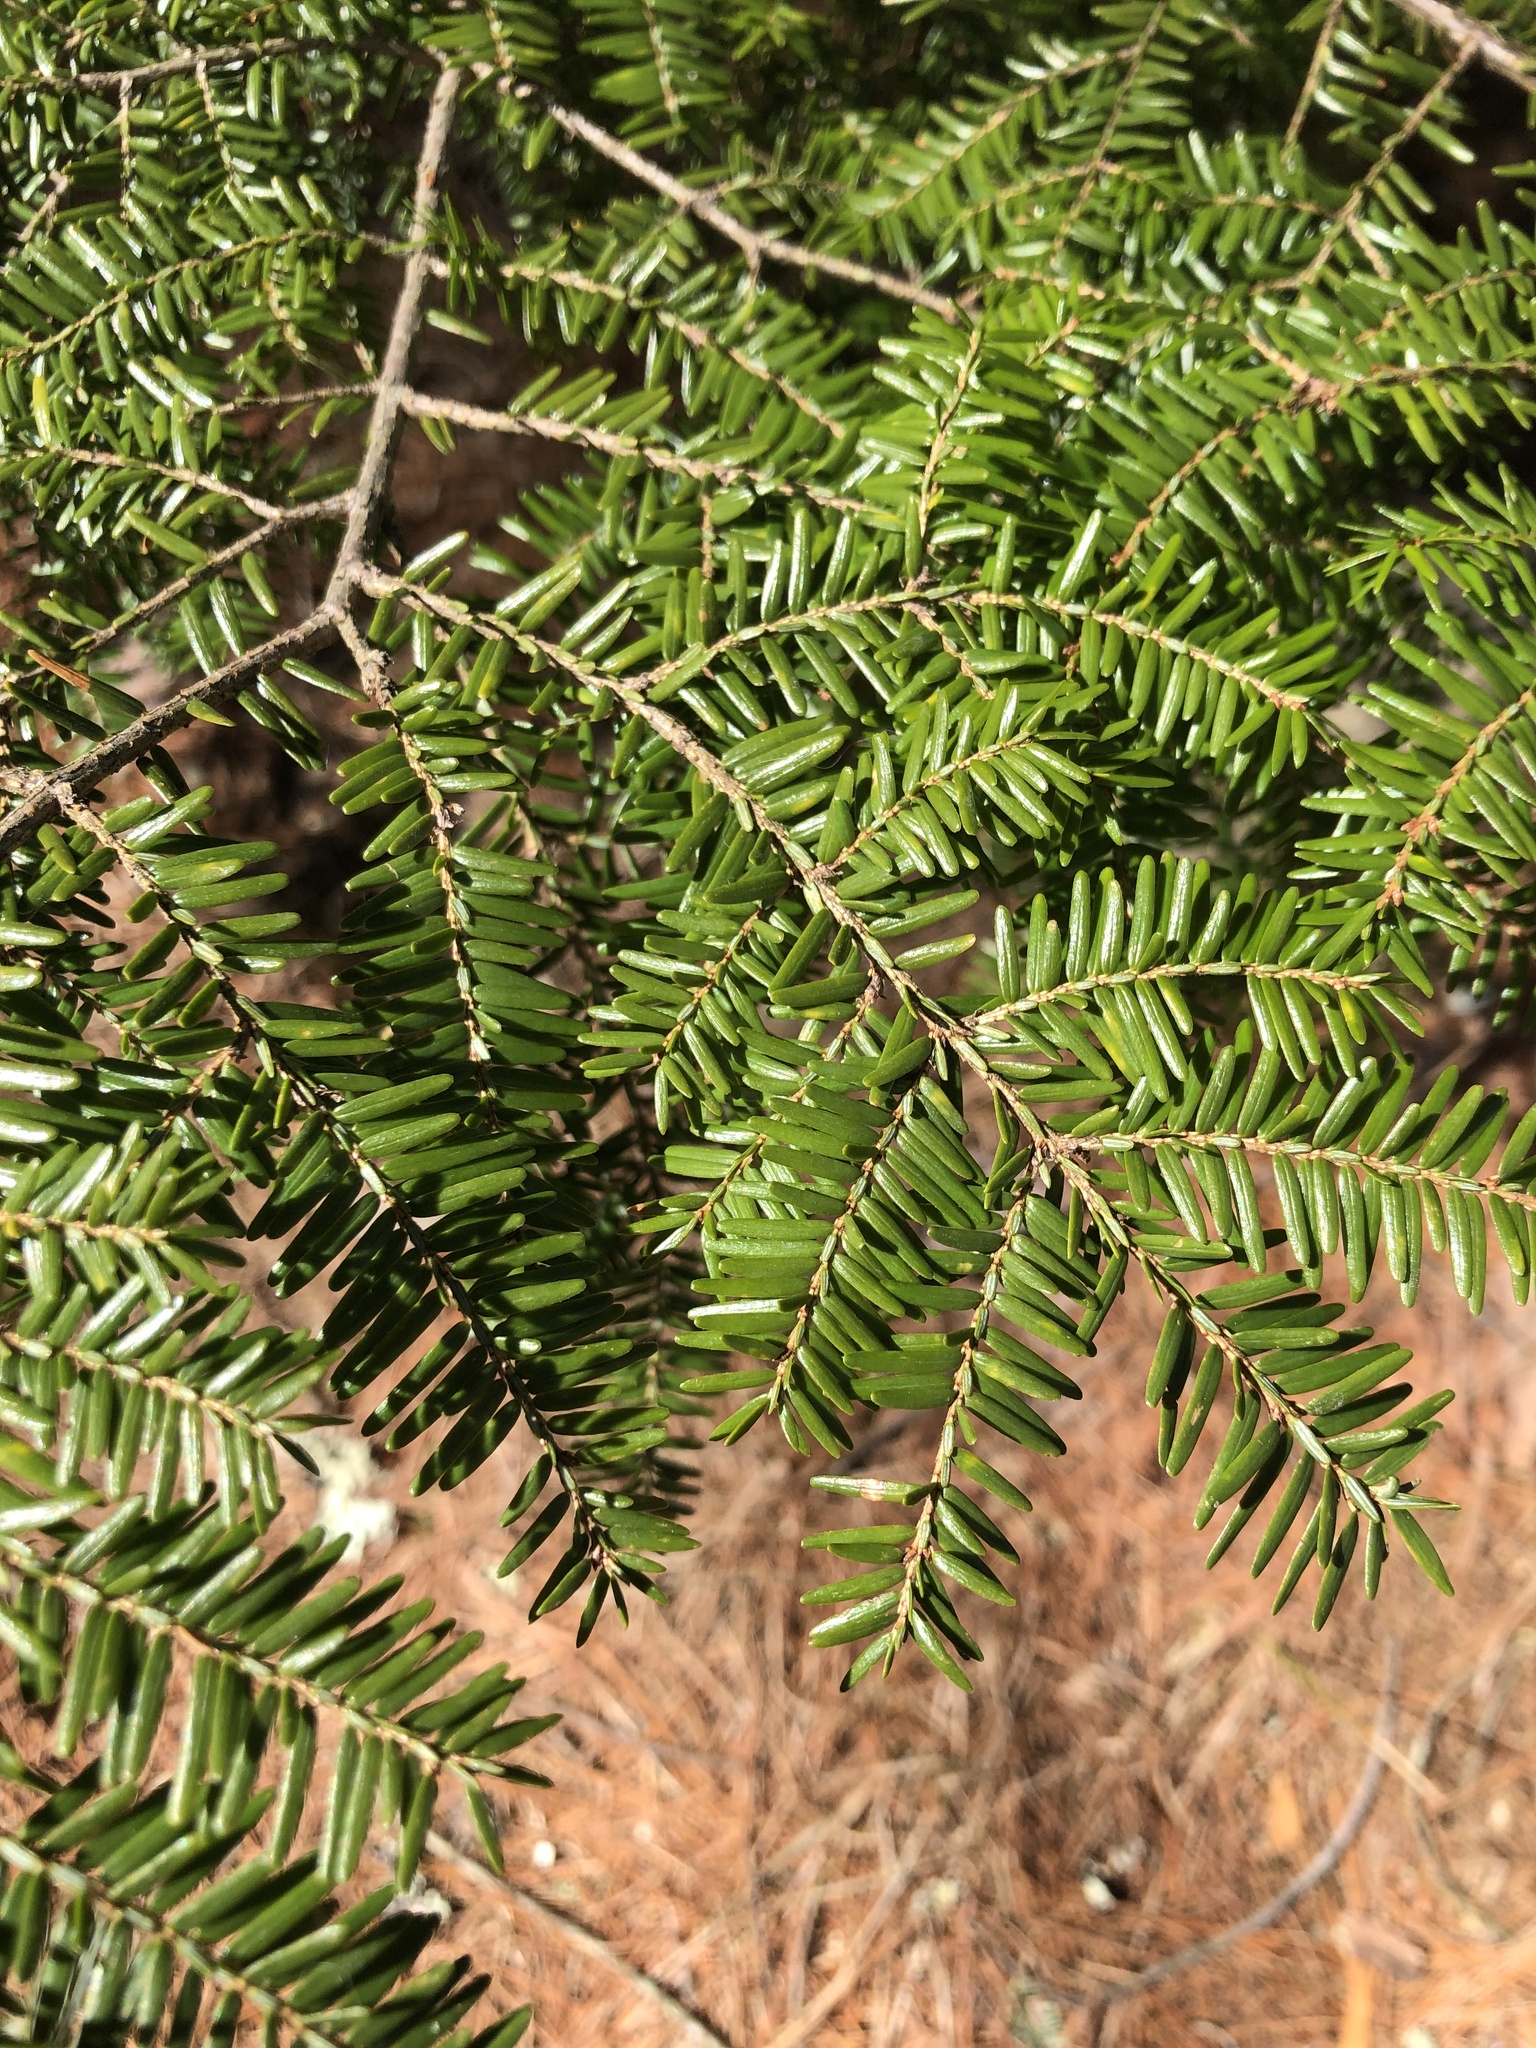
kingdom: Plantae
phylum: Tracheophyta
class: Pinopsida
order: Pinales
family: Pinaceae
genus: Tsuga
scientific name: Tsuga canadensis
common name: Eastern hemlock
